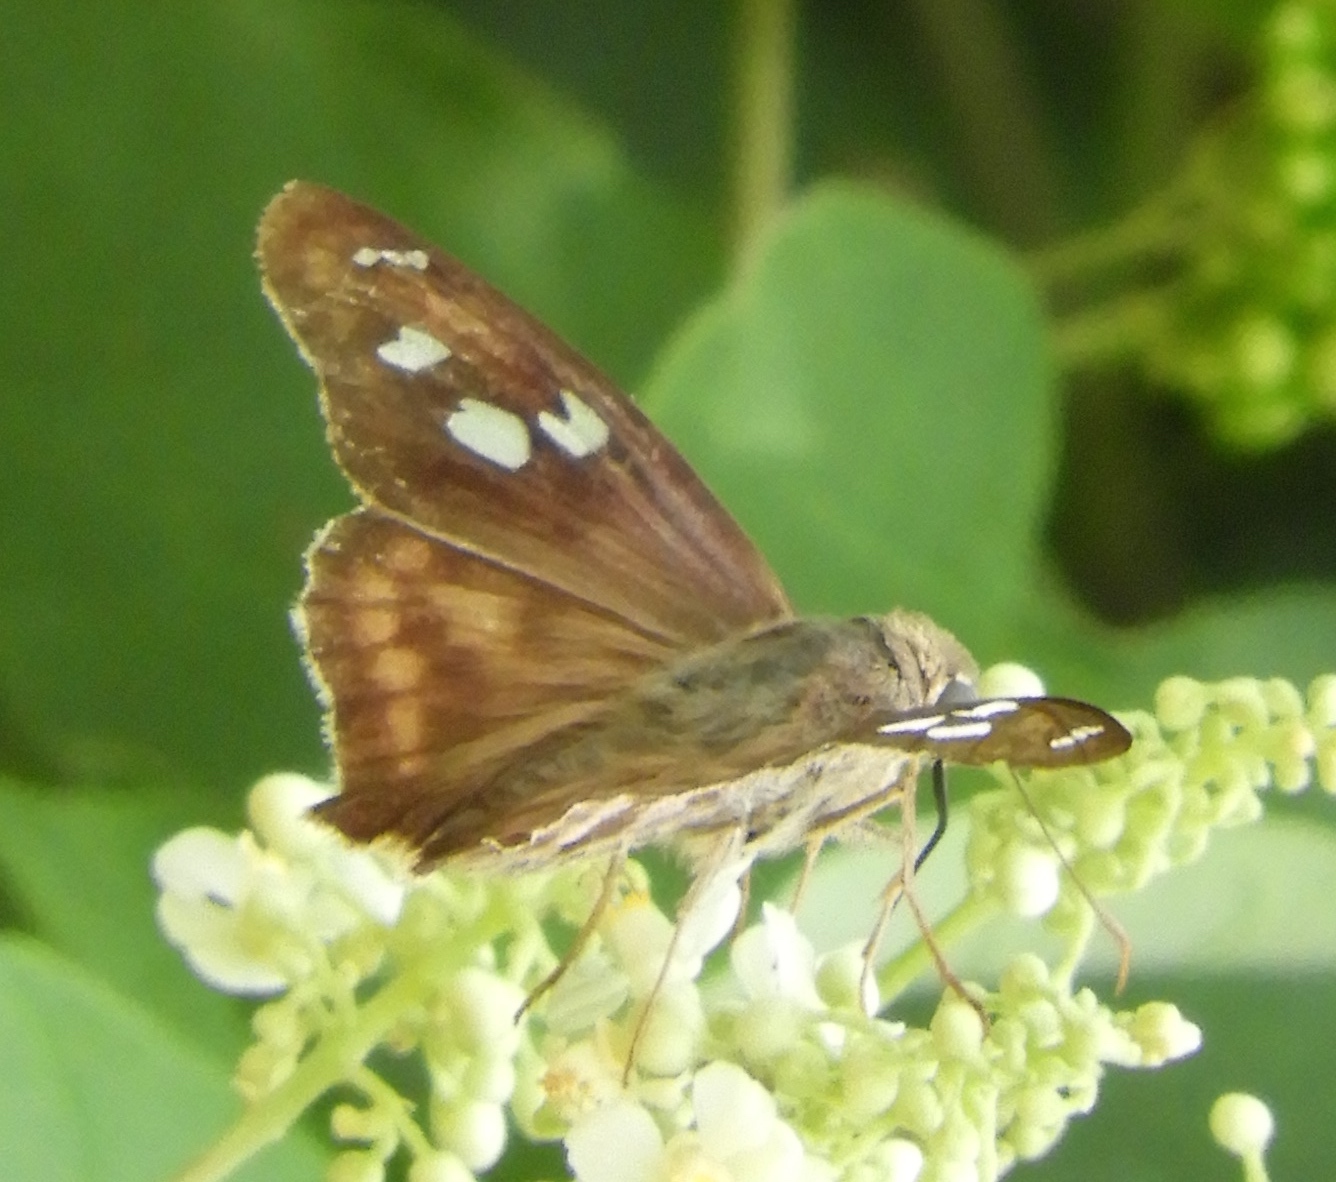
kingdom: Animalia
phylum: Arthropoda
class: Insecta
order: Lepidoptera
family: Hesperiidae
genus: Polygonus
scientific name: Polygonus leo
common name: Hammoch skipper
